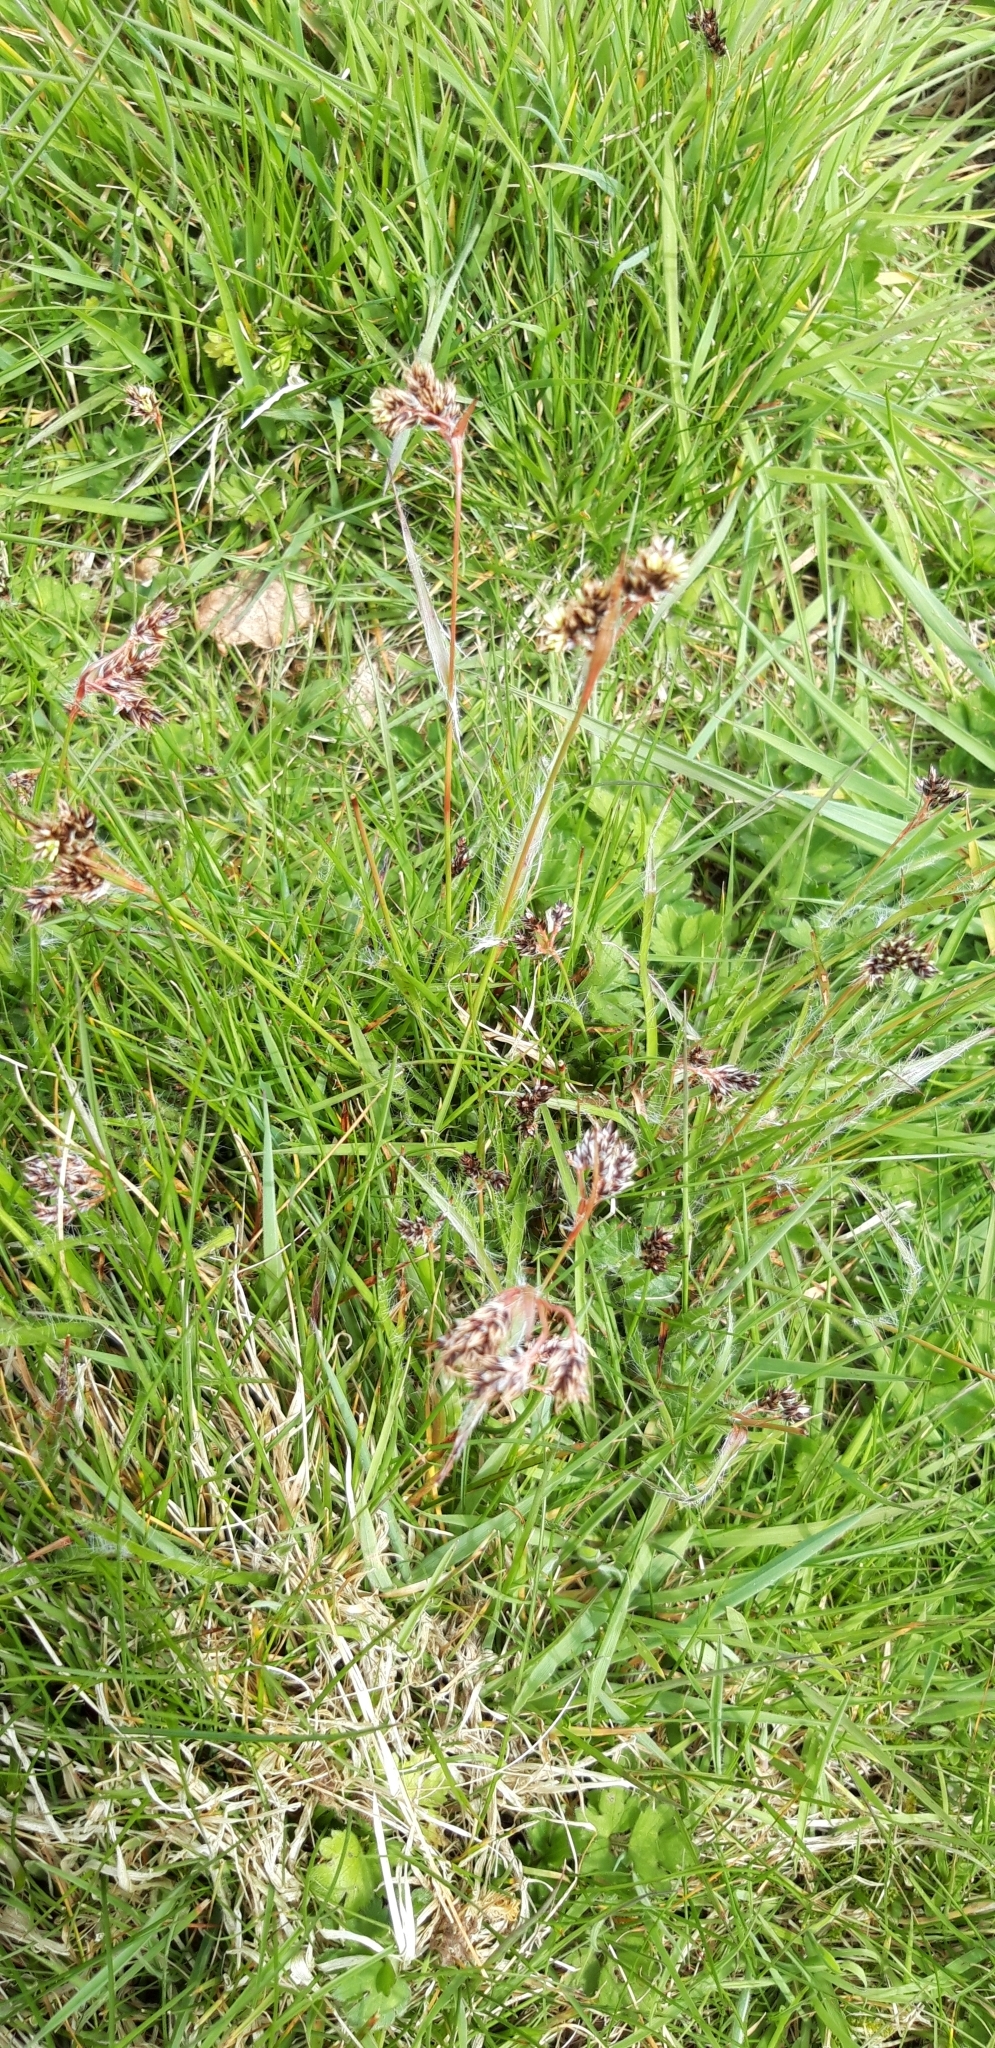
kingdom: Plantae
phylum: Tracheophyta
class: Liliopsida
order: Poales
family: Juncaceae
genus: Luzula
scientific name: Luzula campestris
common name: Field wood-rush
